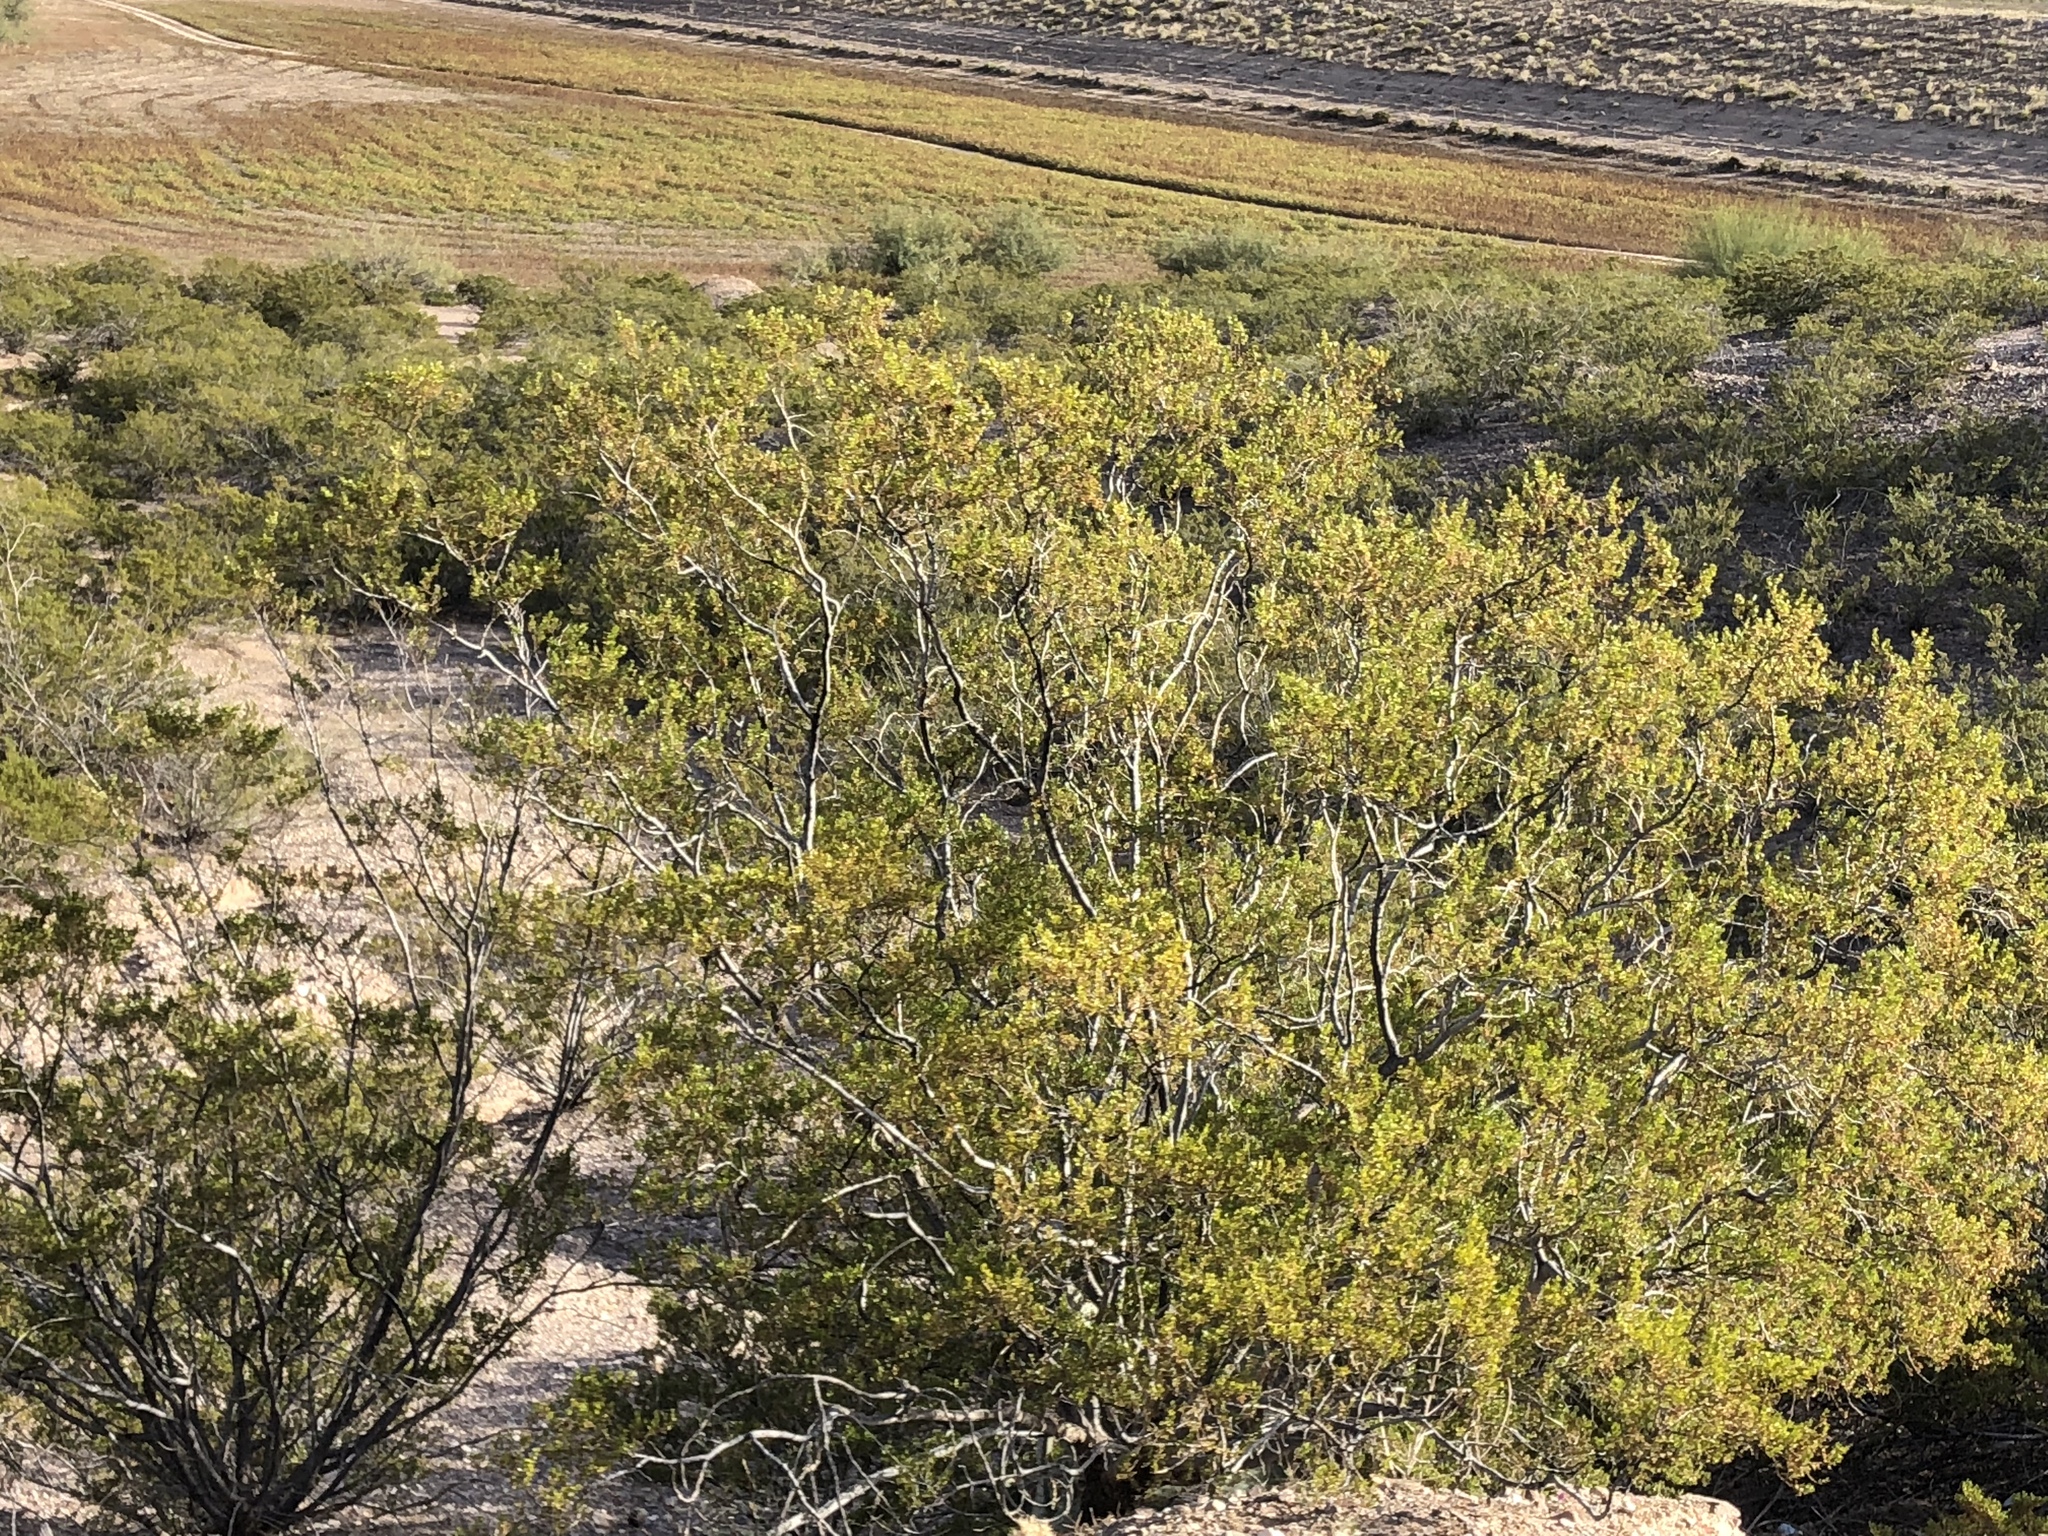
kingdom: Plantae
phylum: Tracheophyta
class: Magnoliopsida
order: Zygophyllales
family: Zygophyllaceae
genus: Larrea
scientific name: Larrea tridentata
